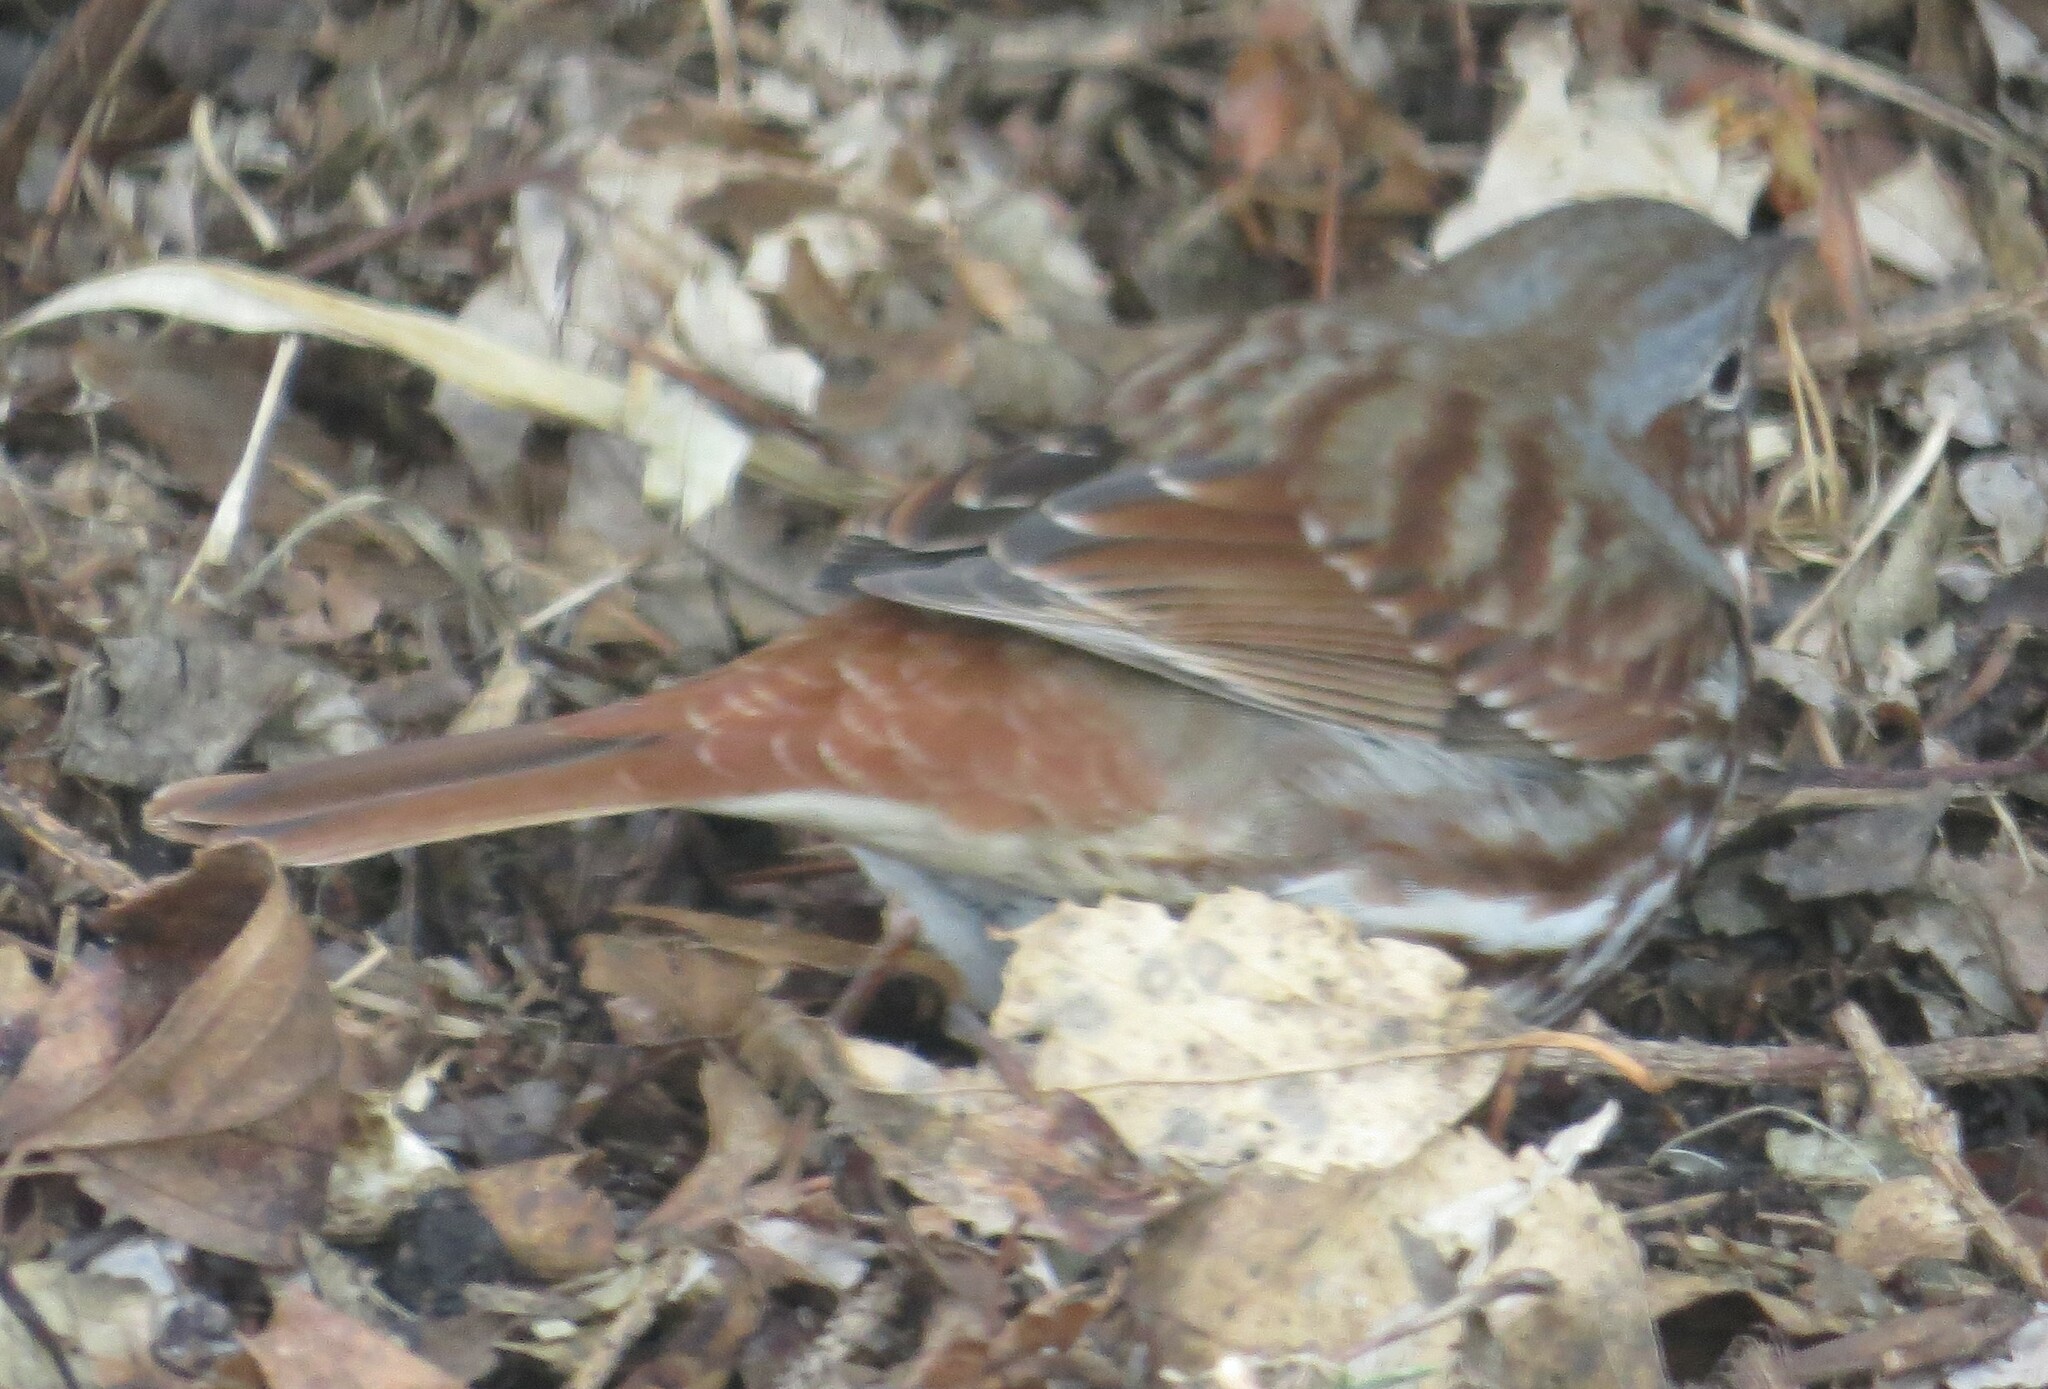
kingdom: Animalia
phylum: Chordata
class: Aves
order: Passeriformes
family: Passerellidae
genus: Passerella
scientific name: Passerella iliaca
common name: Fox sparrow
